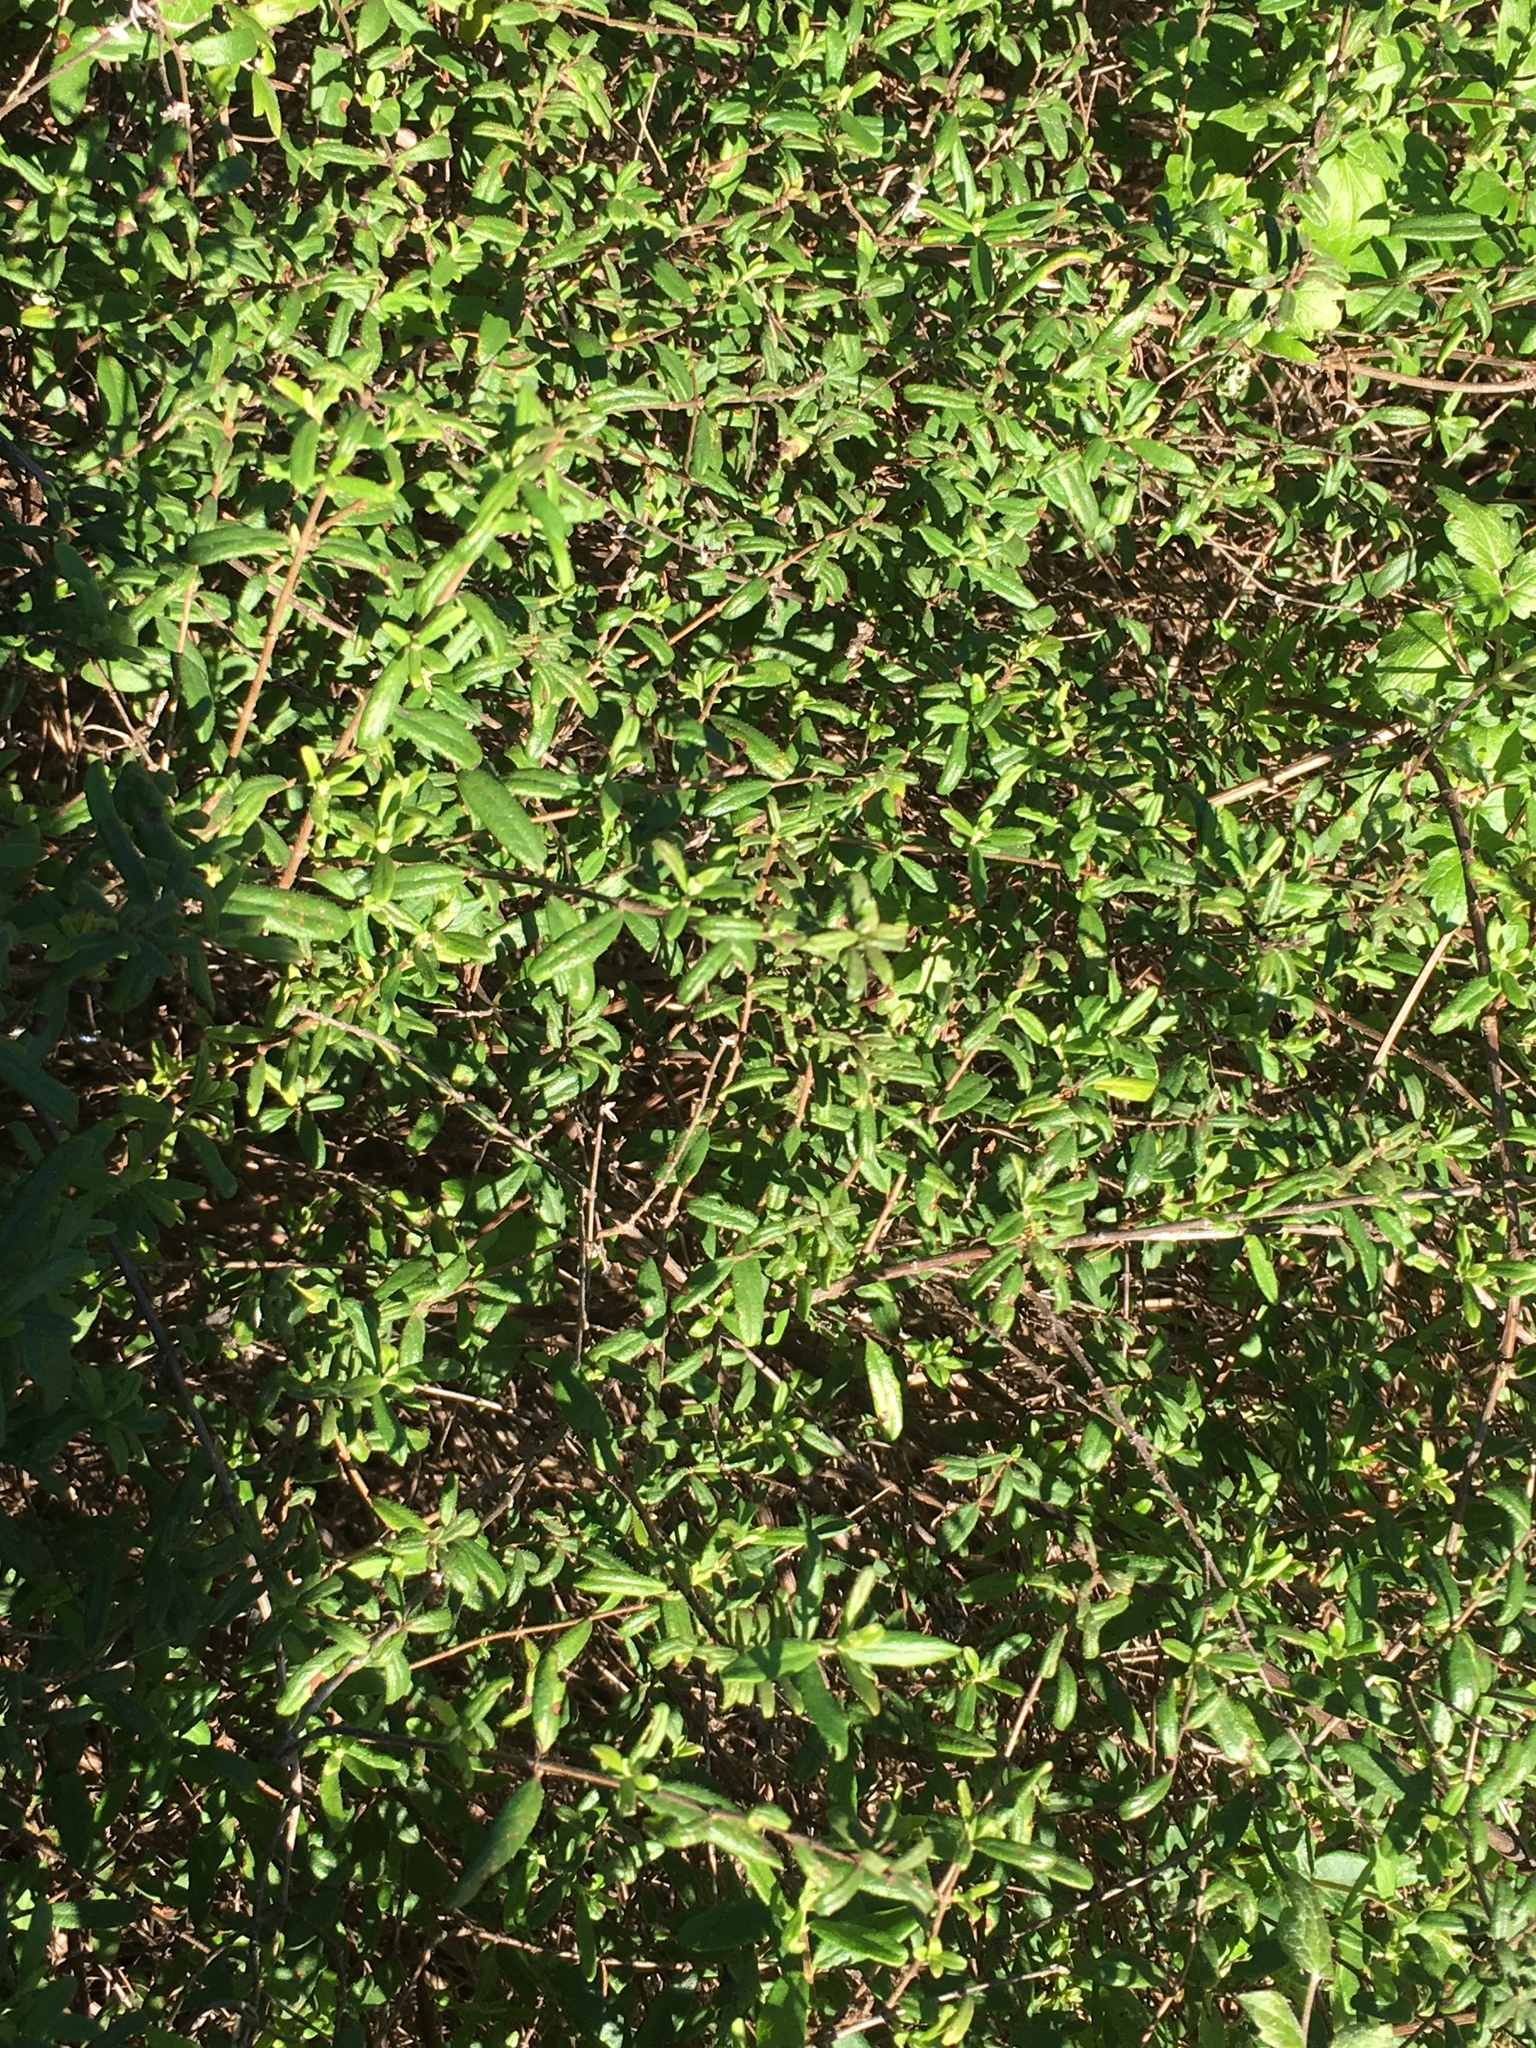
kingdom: Plantae
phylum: Tracheophyta
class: Magnoliopsida
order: Dipsacales
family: Caprifoliaceae
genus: Lonicera
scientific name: Lonicera subspicata
